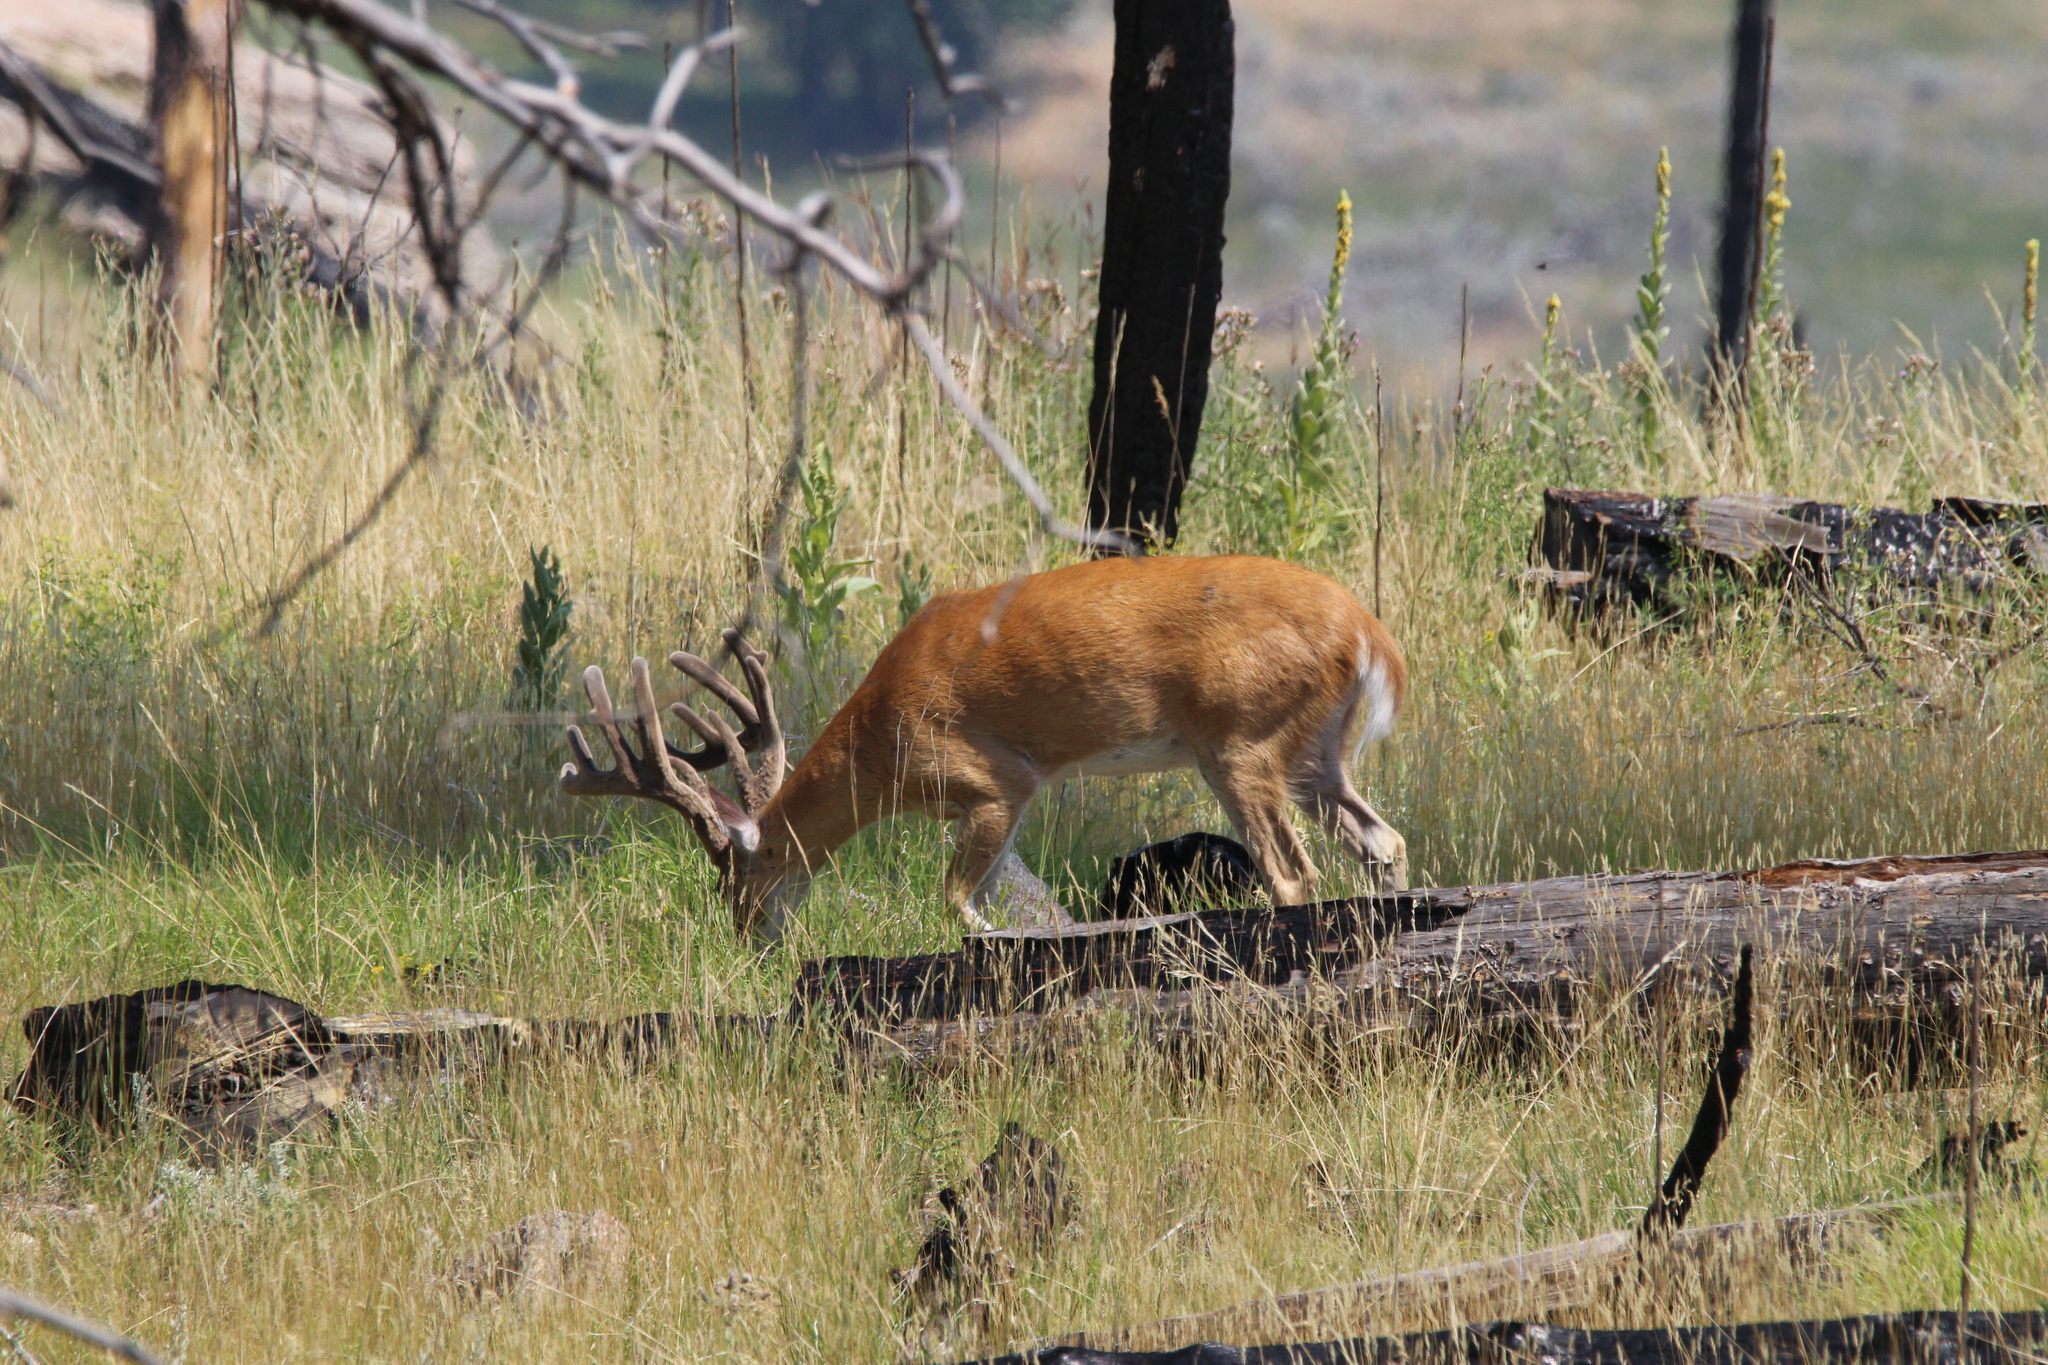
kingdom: Animalia
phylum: Chordata
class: Mammalia
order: Artiodactyla
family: Cervidae
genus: Odocoileus
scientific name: Odocoileus virginianus
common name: White-tailed deer
